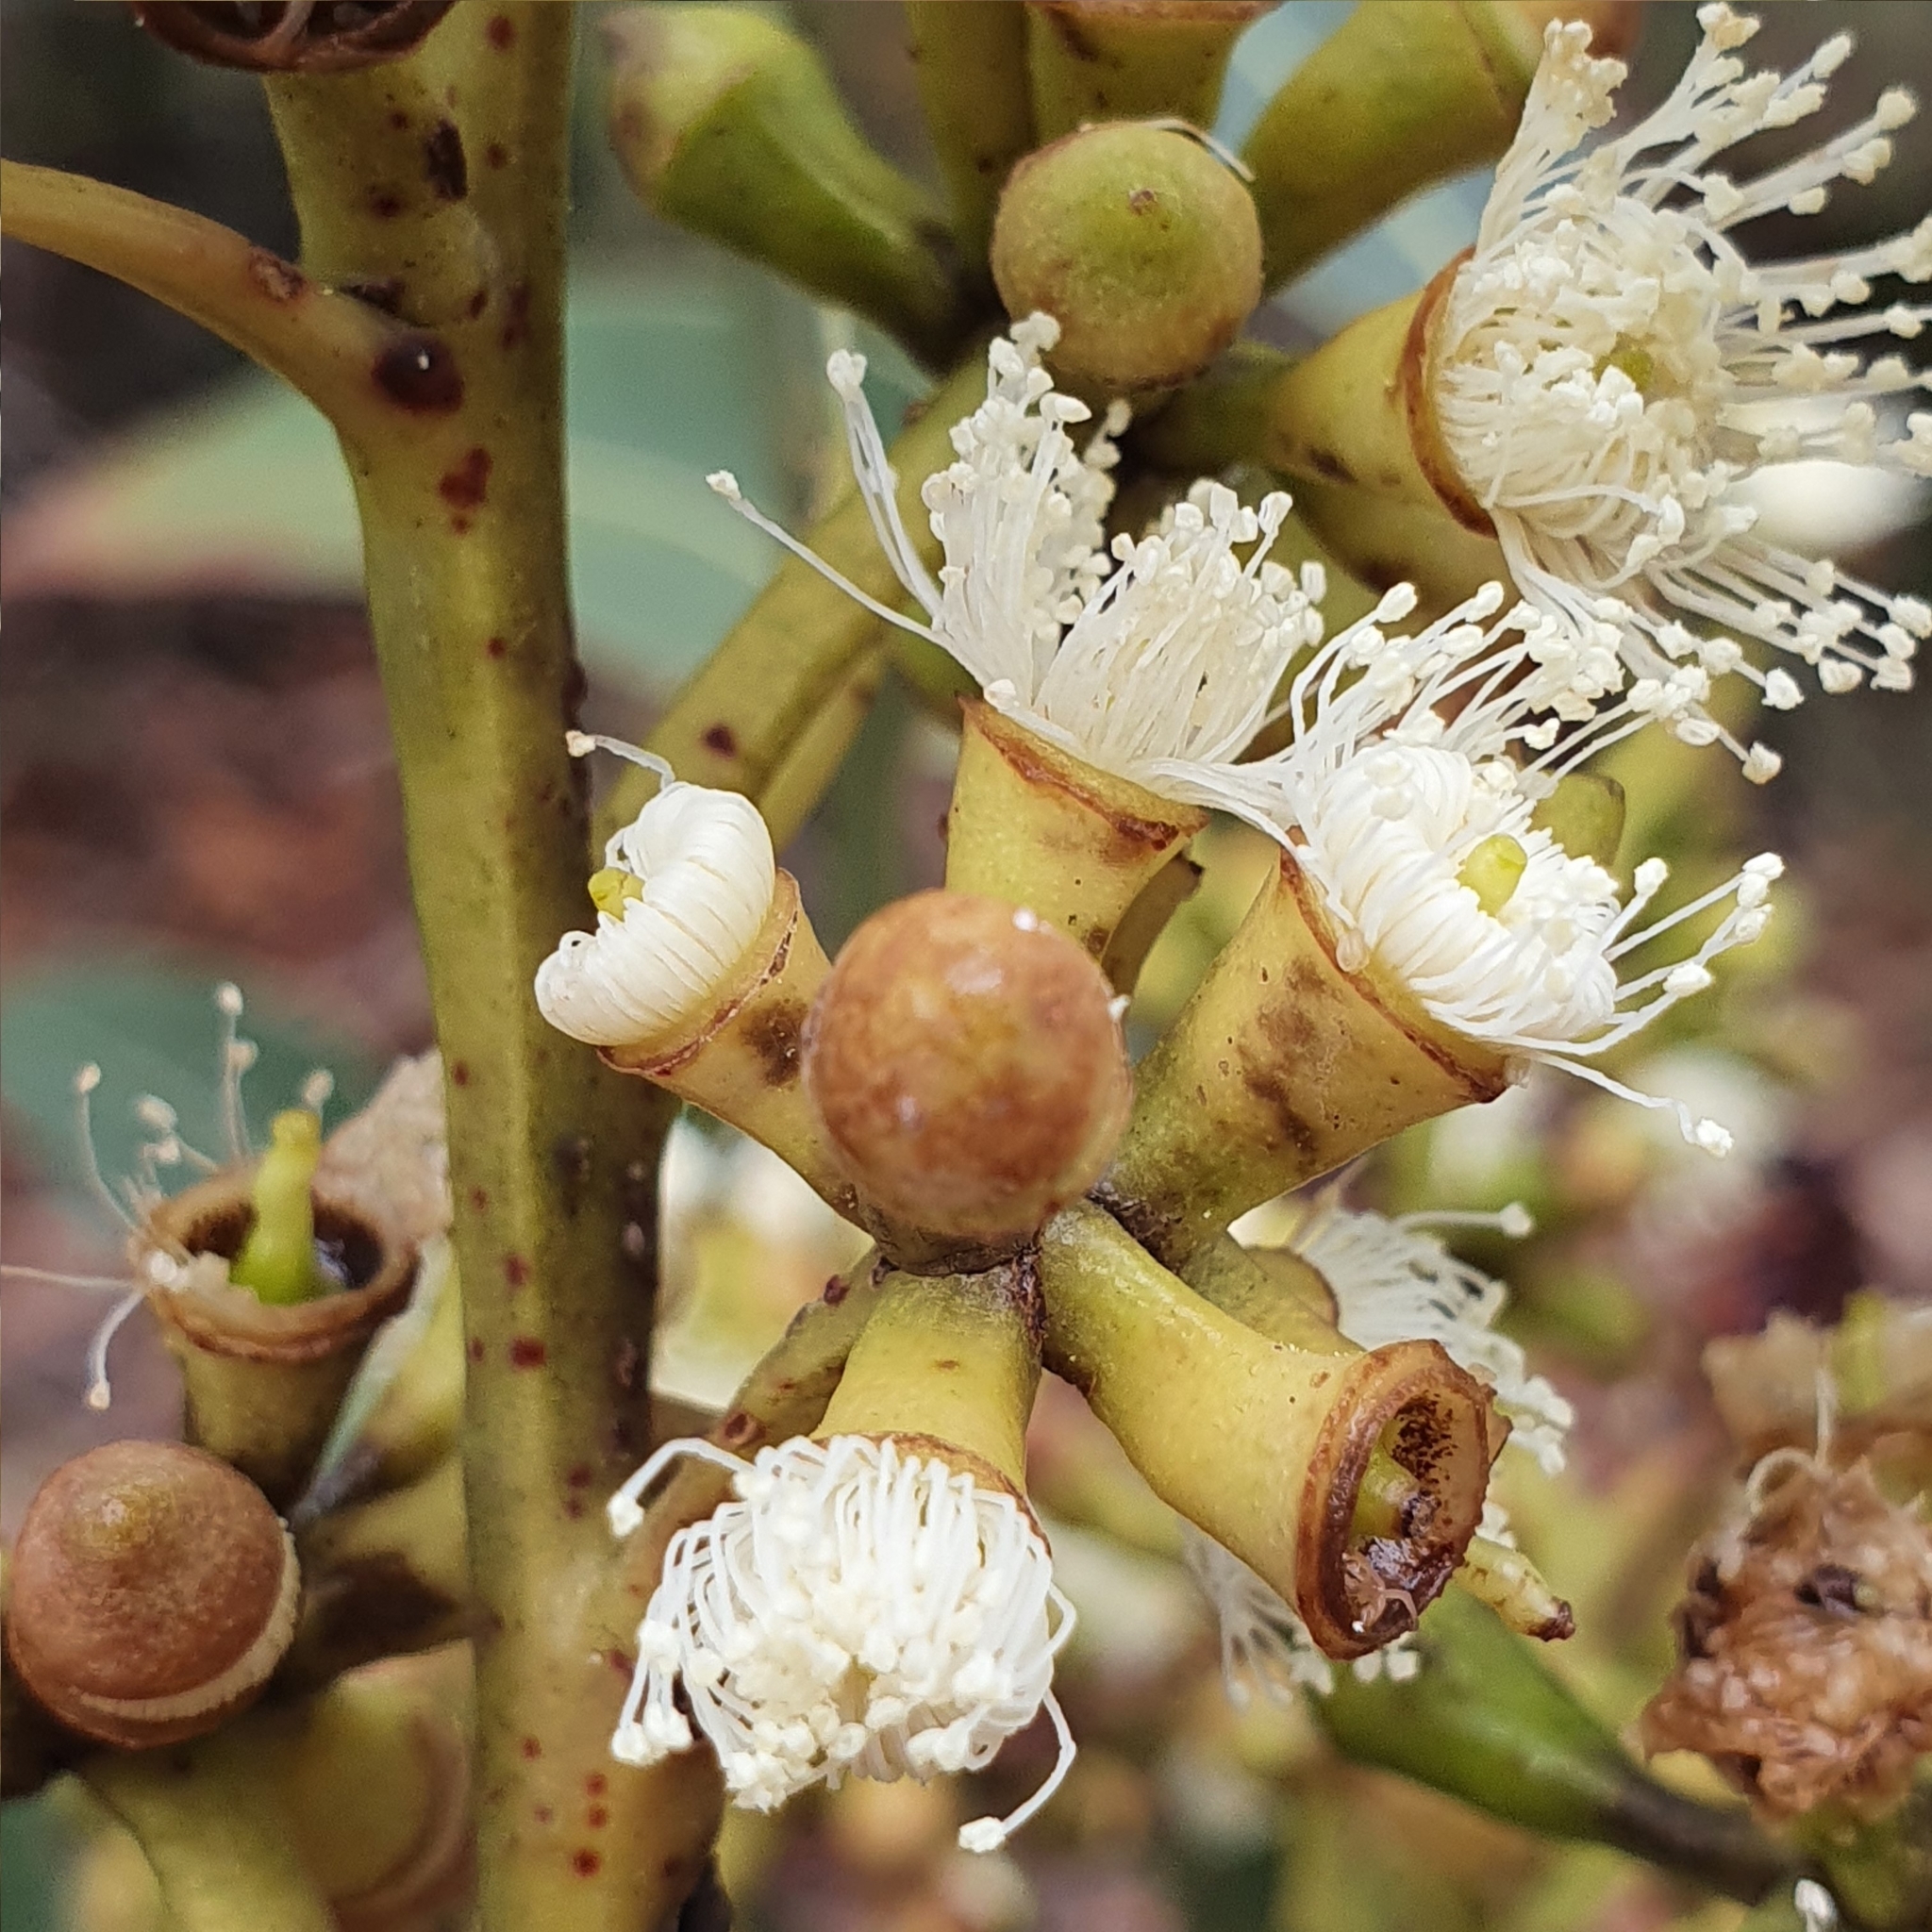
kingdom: Plantae
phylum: Tracheophyta
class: Magnoliopsida
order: Myrtales
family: Myrtaceae
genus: Eucalyptus
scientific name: Eucalyptus botryoides
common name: Bangalay
